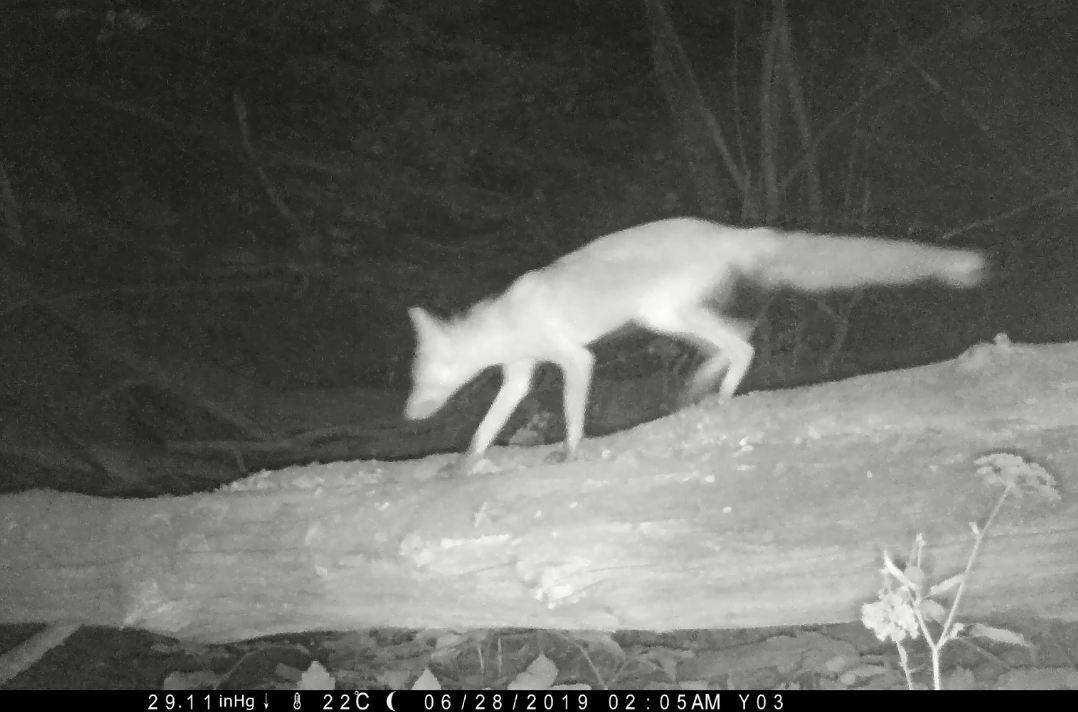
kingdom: Animalia
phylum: Chordata
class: Mammalia
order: Carnivora
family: Canidae
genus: Vulpes
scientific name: Vulpes vulpes
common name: Red fox
